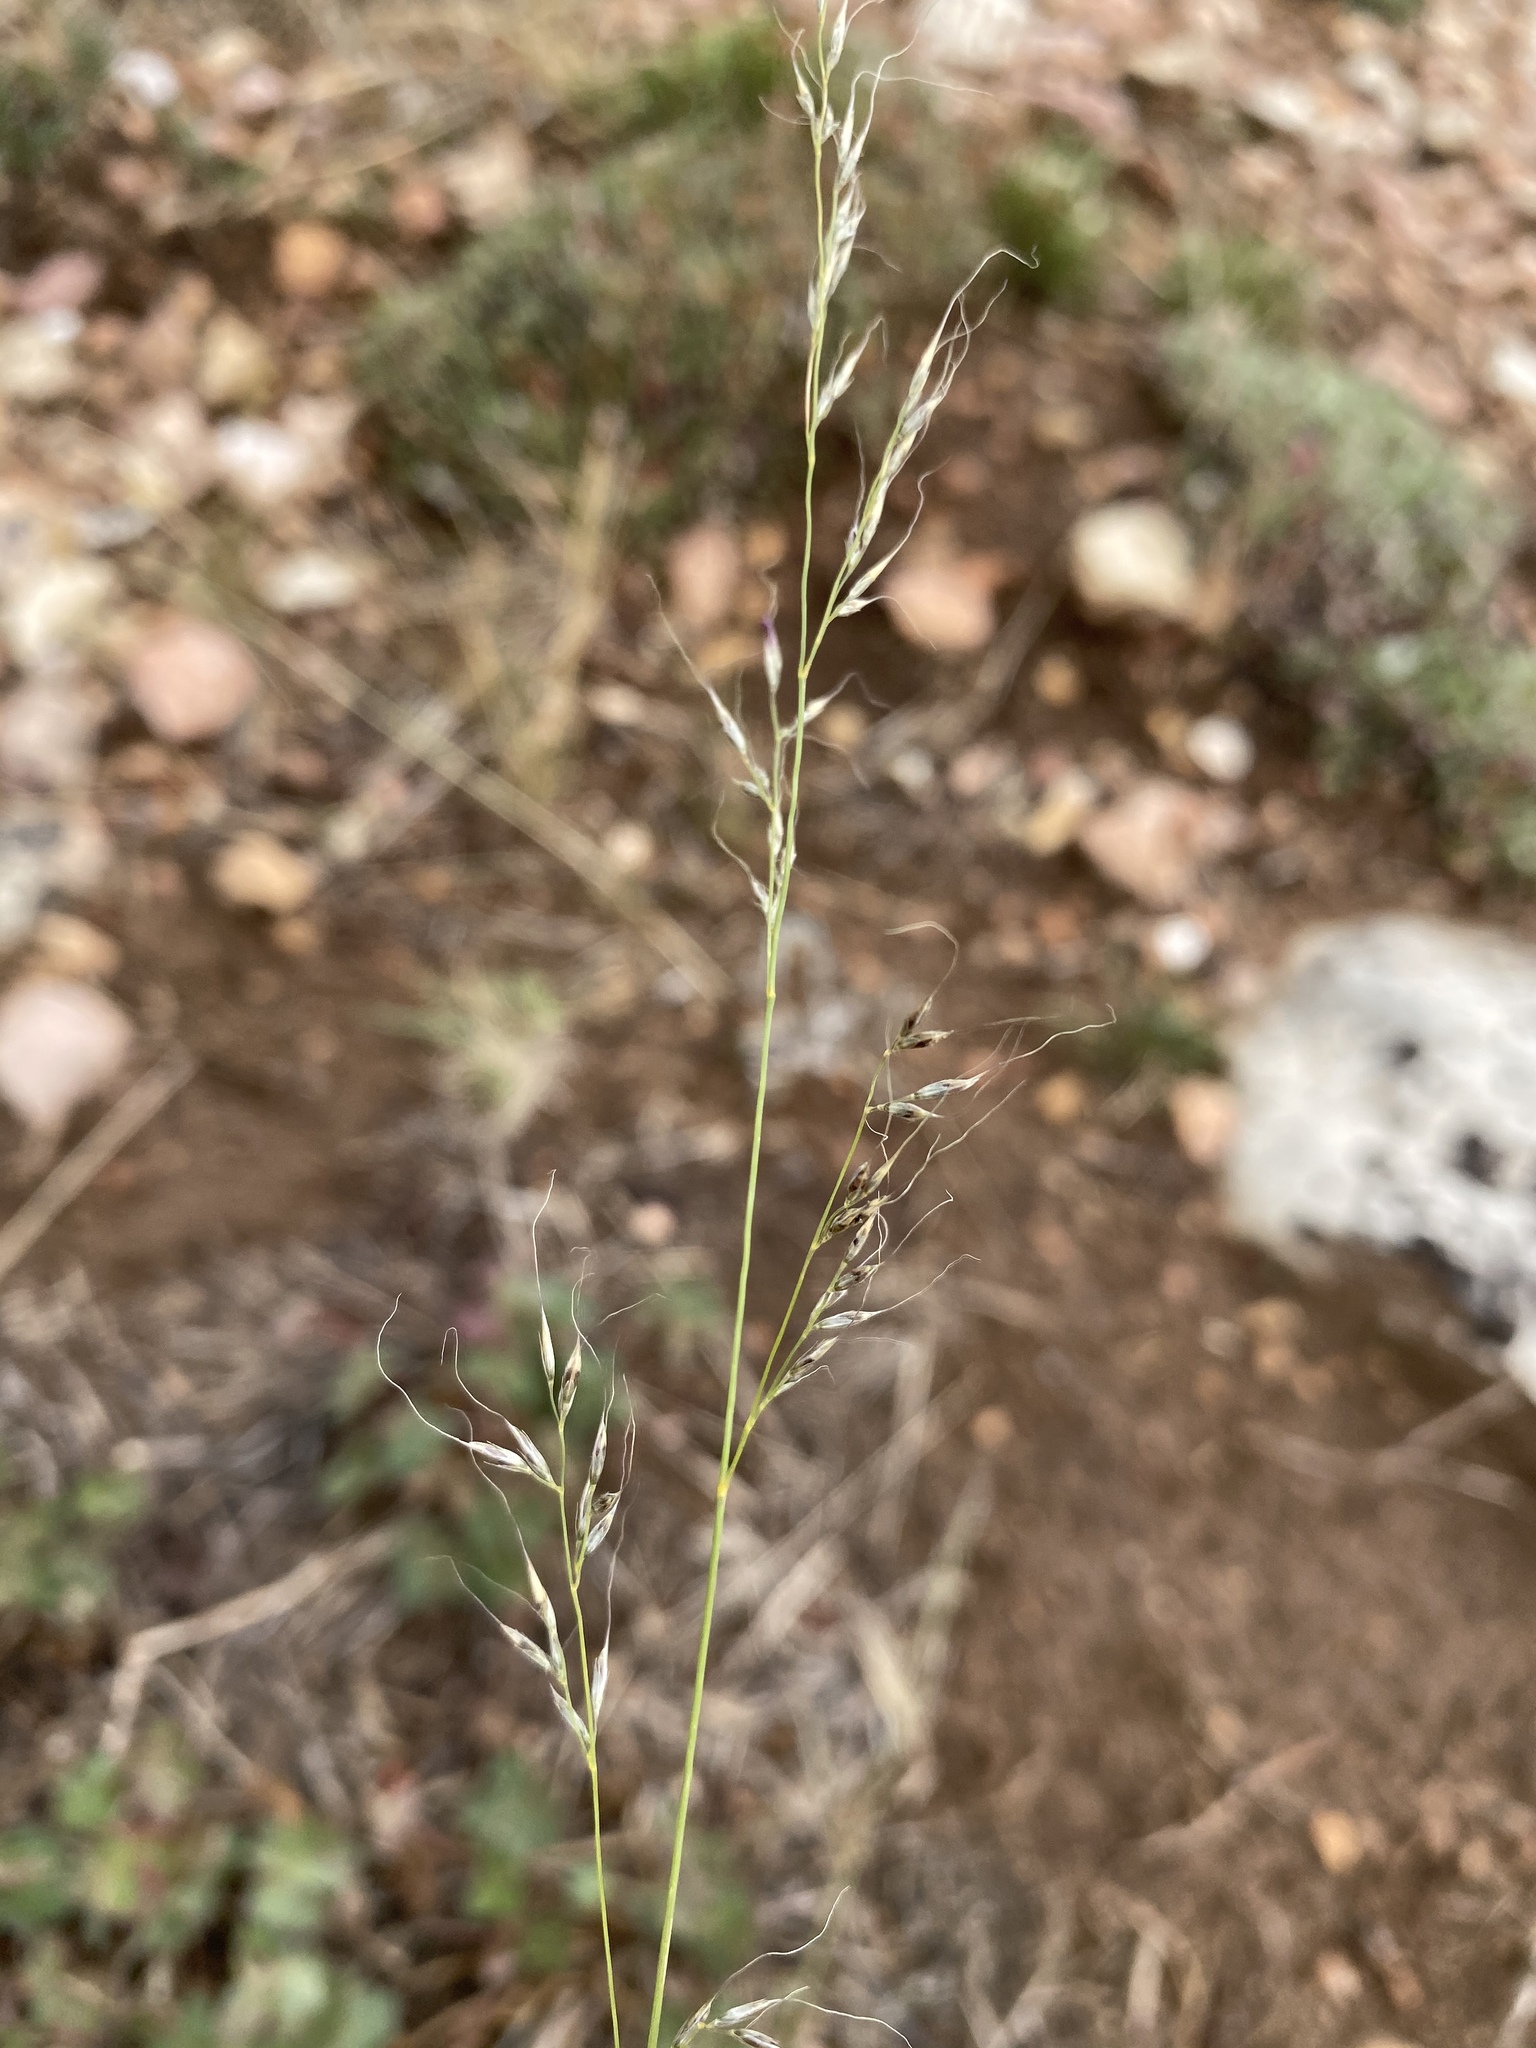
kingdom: Plantae
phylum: Tracheophyta
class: Liliopsida
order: Poales
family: Poaceae
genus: Muhlenbergia
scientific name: Muhlenbergia montana
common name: Mountain muhly
